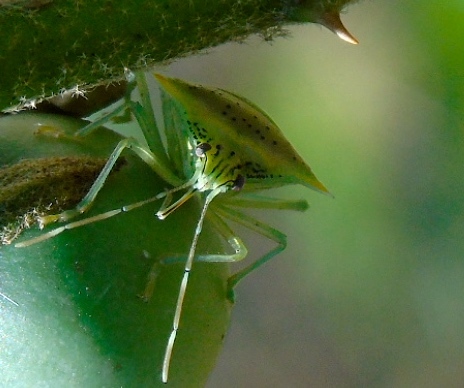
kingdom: Animalia
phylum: Arthropoda
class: Insecta
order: Hemiptera
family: Pentatomidae
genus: Arvelius
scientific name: Arvelius albopunctatus
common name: Tomato stink bug
